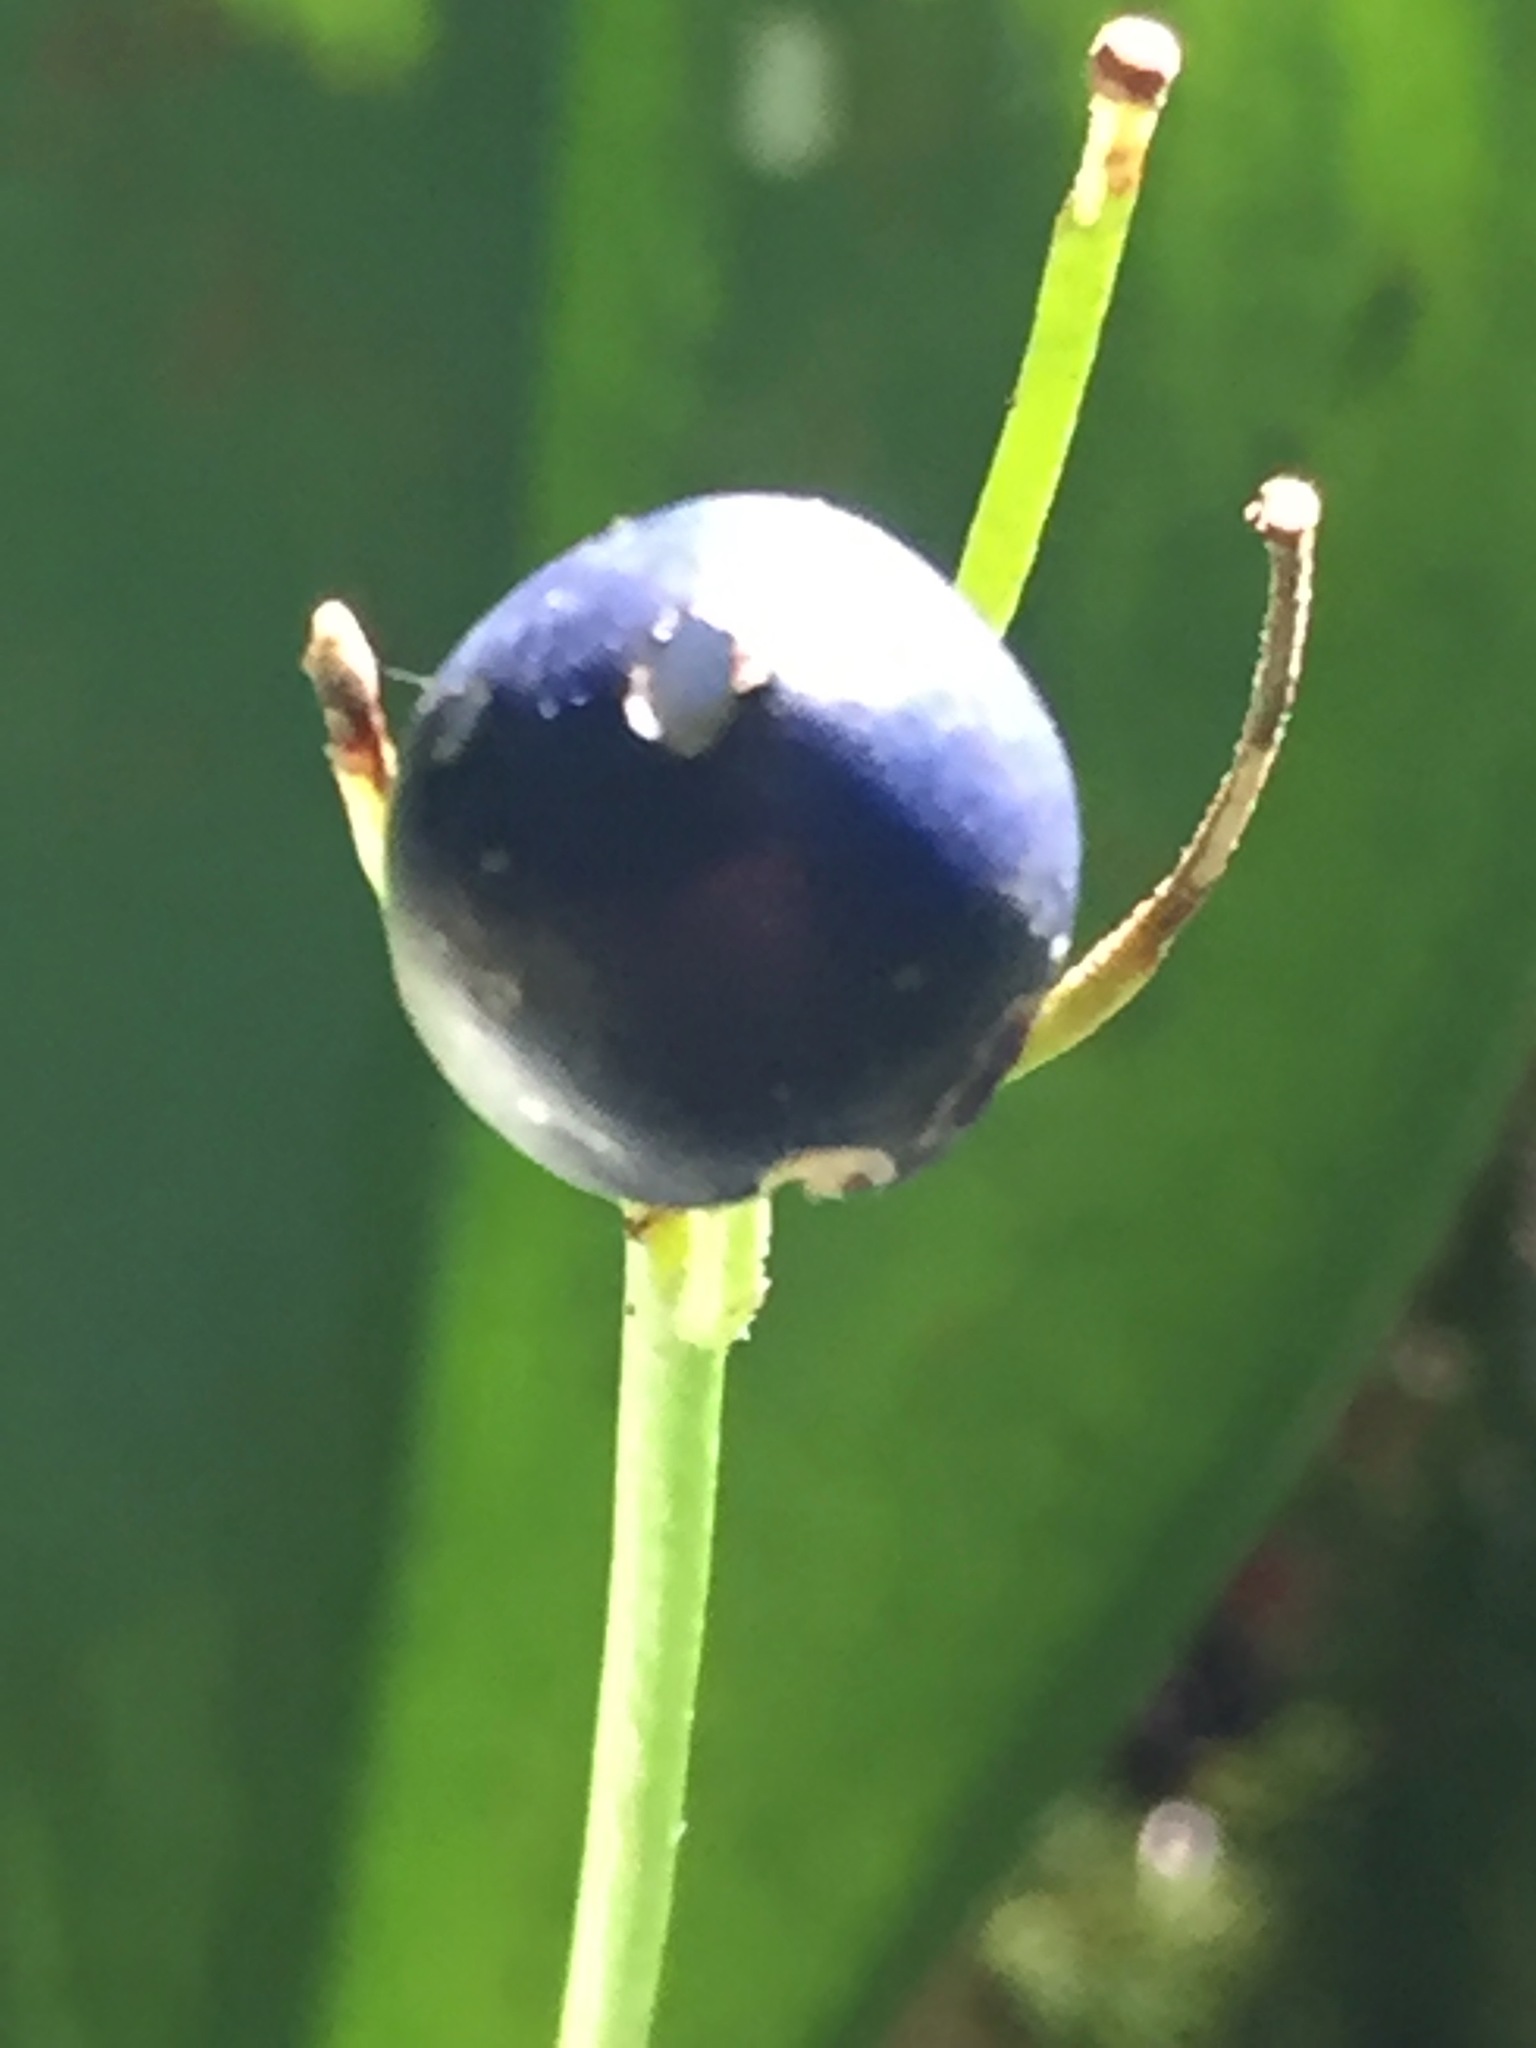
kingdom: Plantae
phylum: Tracheophyta
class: Liliopsida
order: Liliales
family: Liliaceae
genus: Clintonia
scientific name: Clintonia borealis
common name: Yellow clintonia
